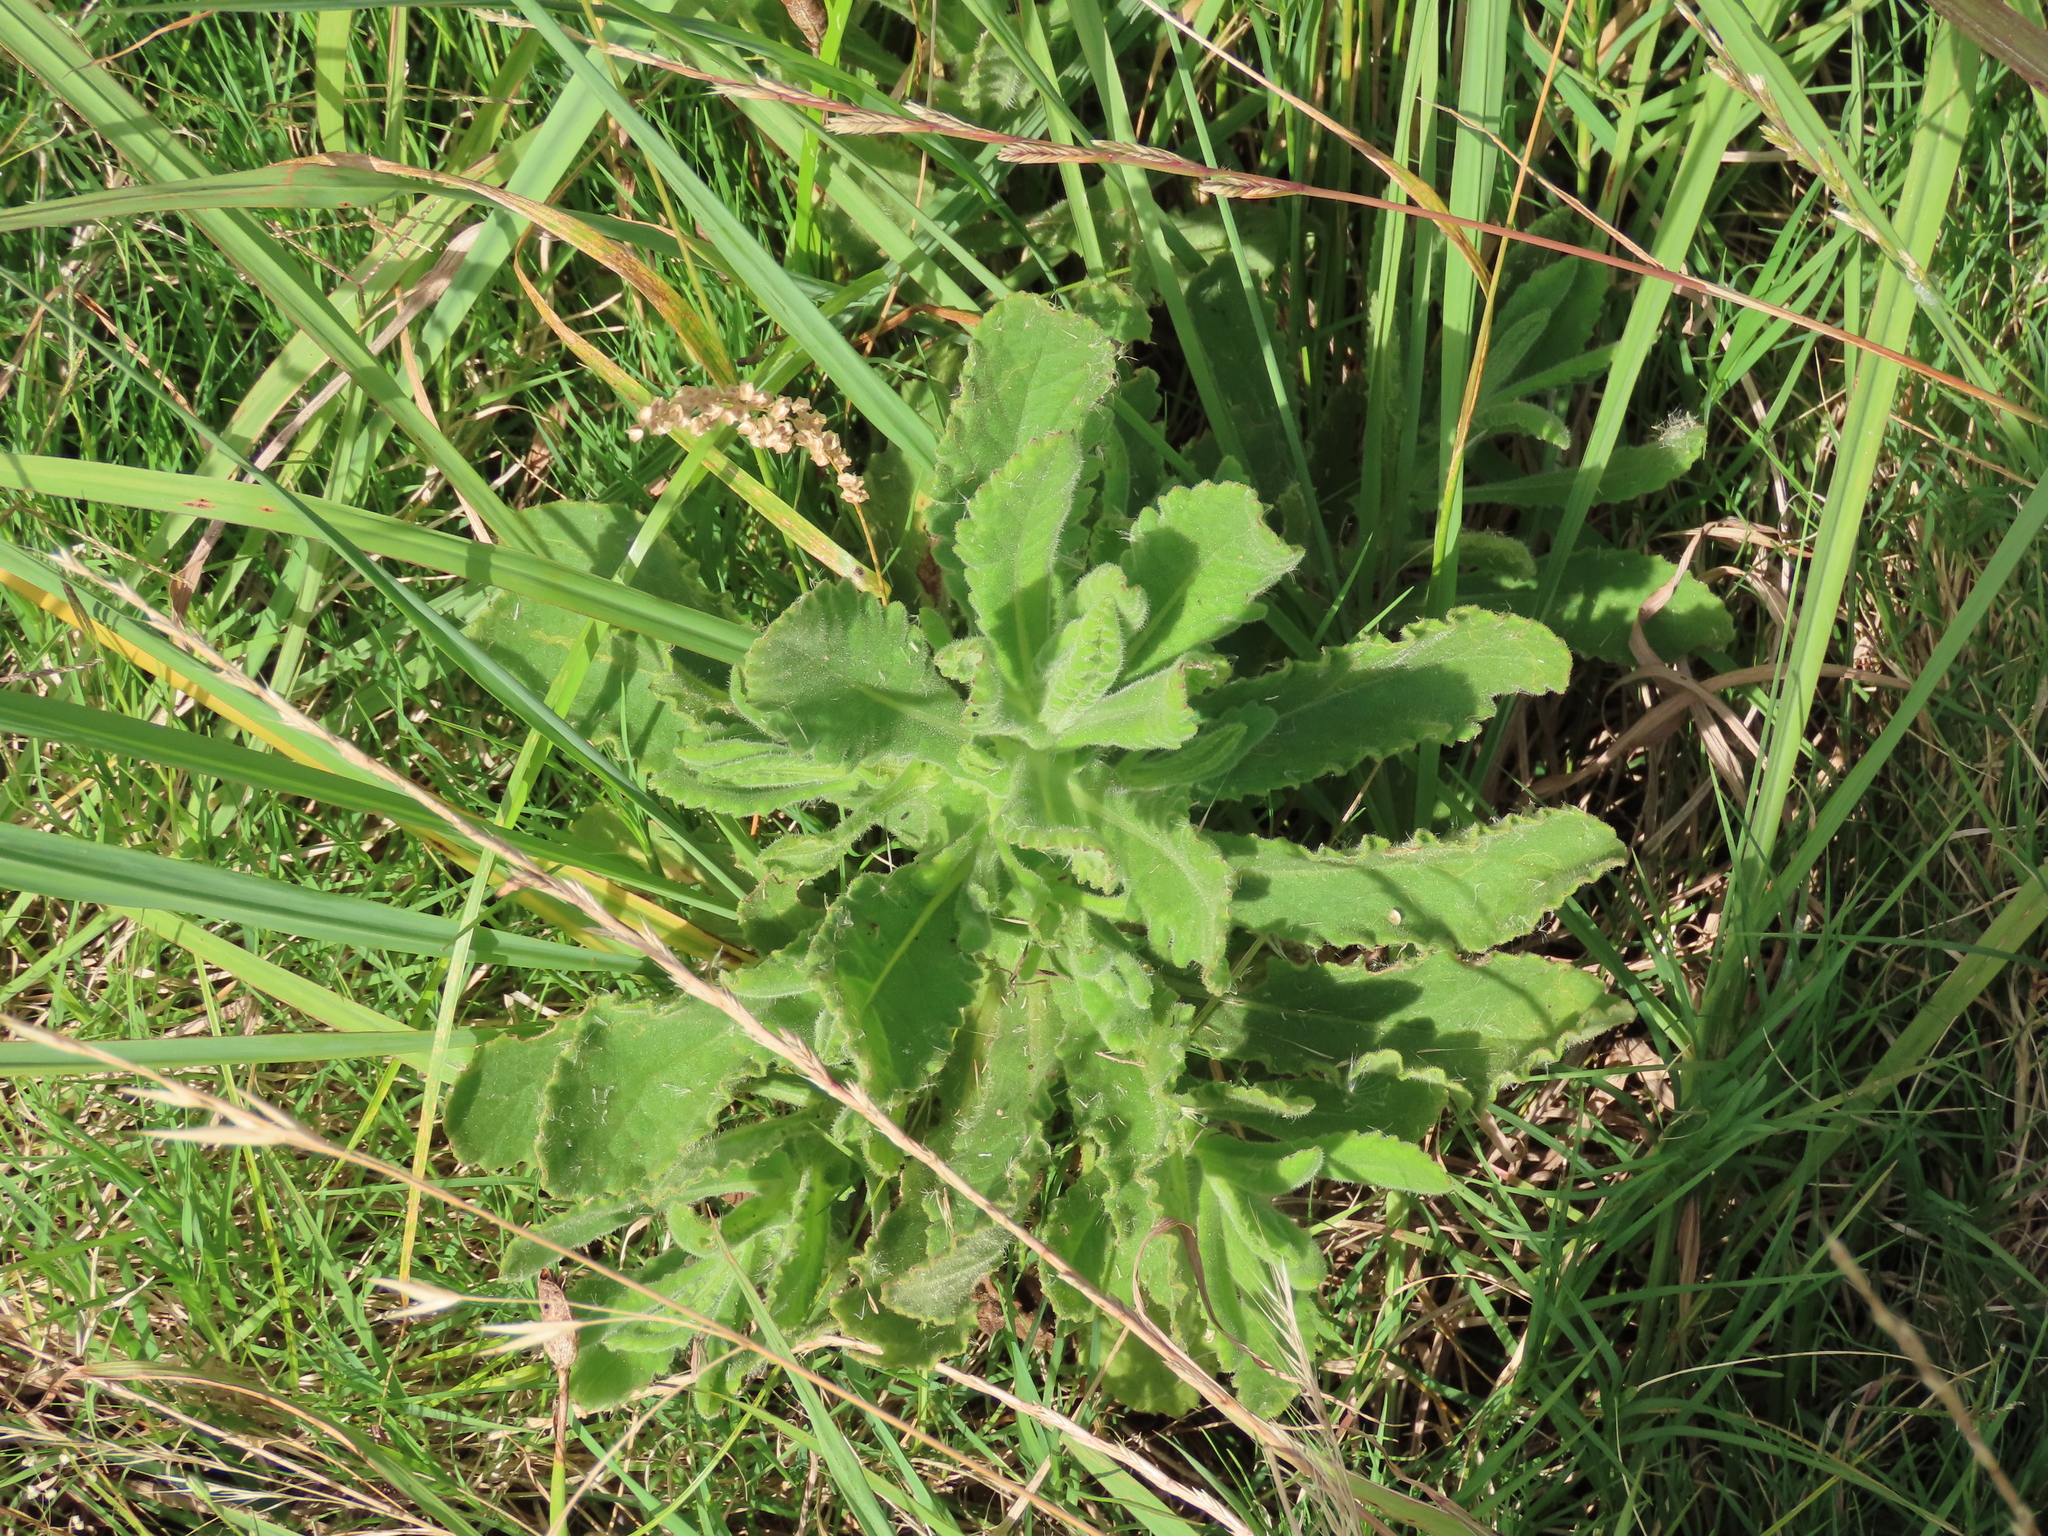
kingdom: Plantae
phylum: Tracheophyta
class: Magnoliopsida
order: Asterales
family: Asteraceae
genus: Senecio
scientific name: Senecio selloi
